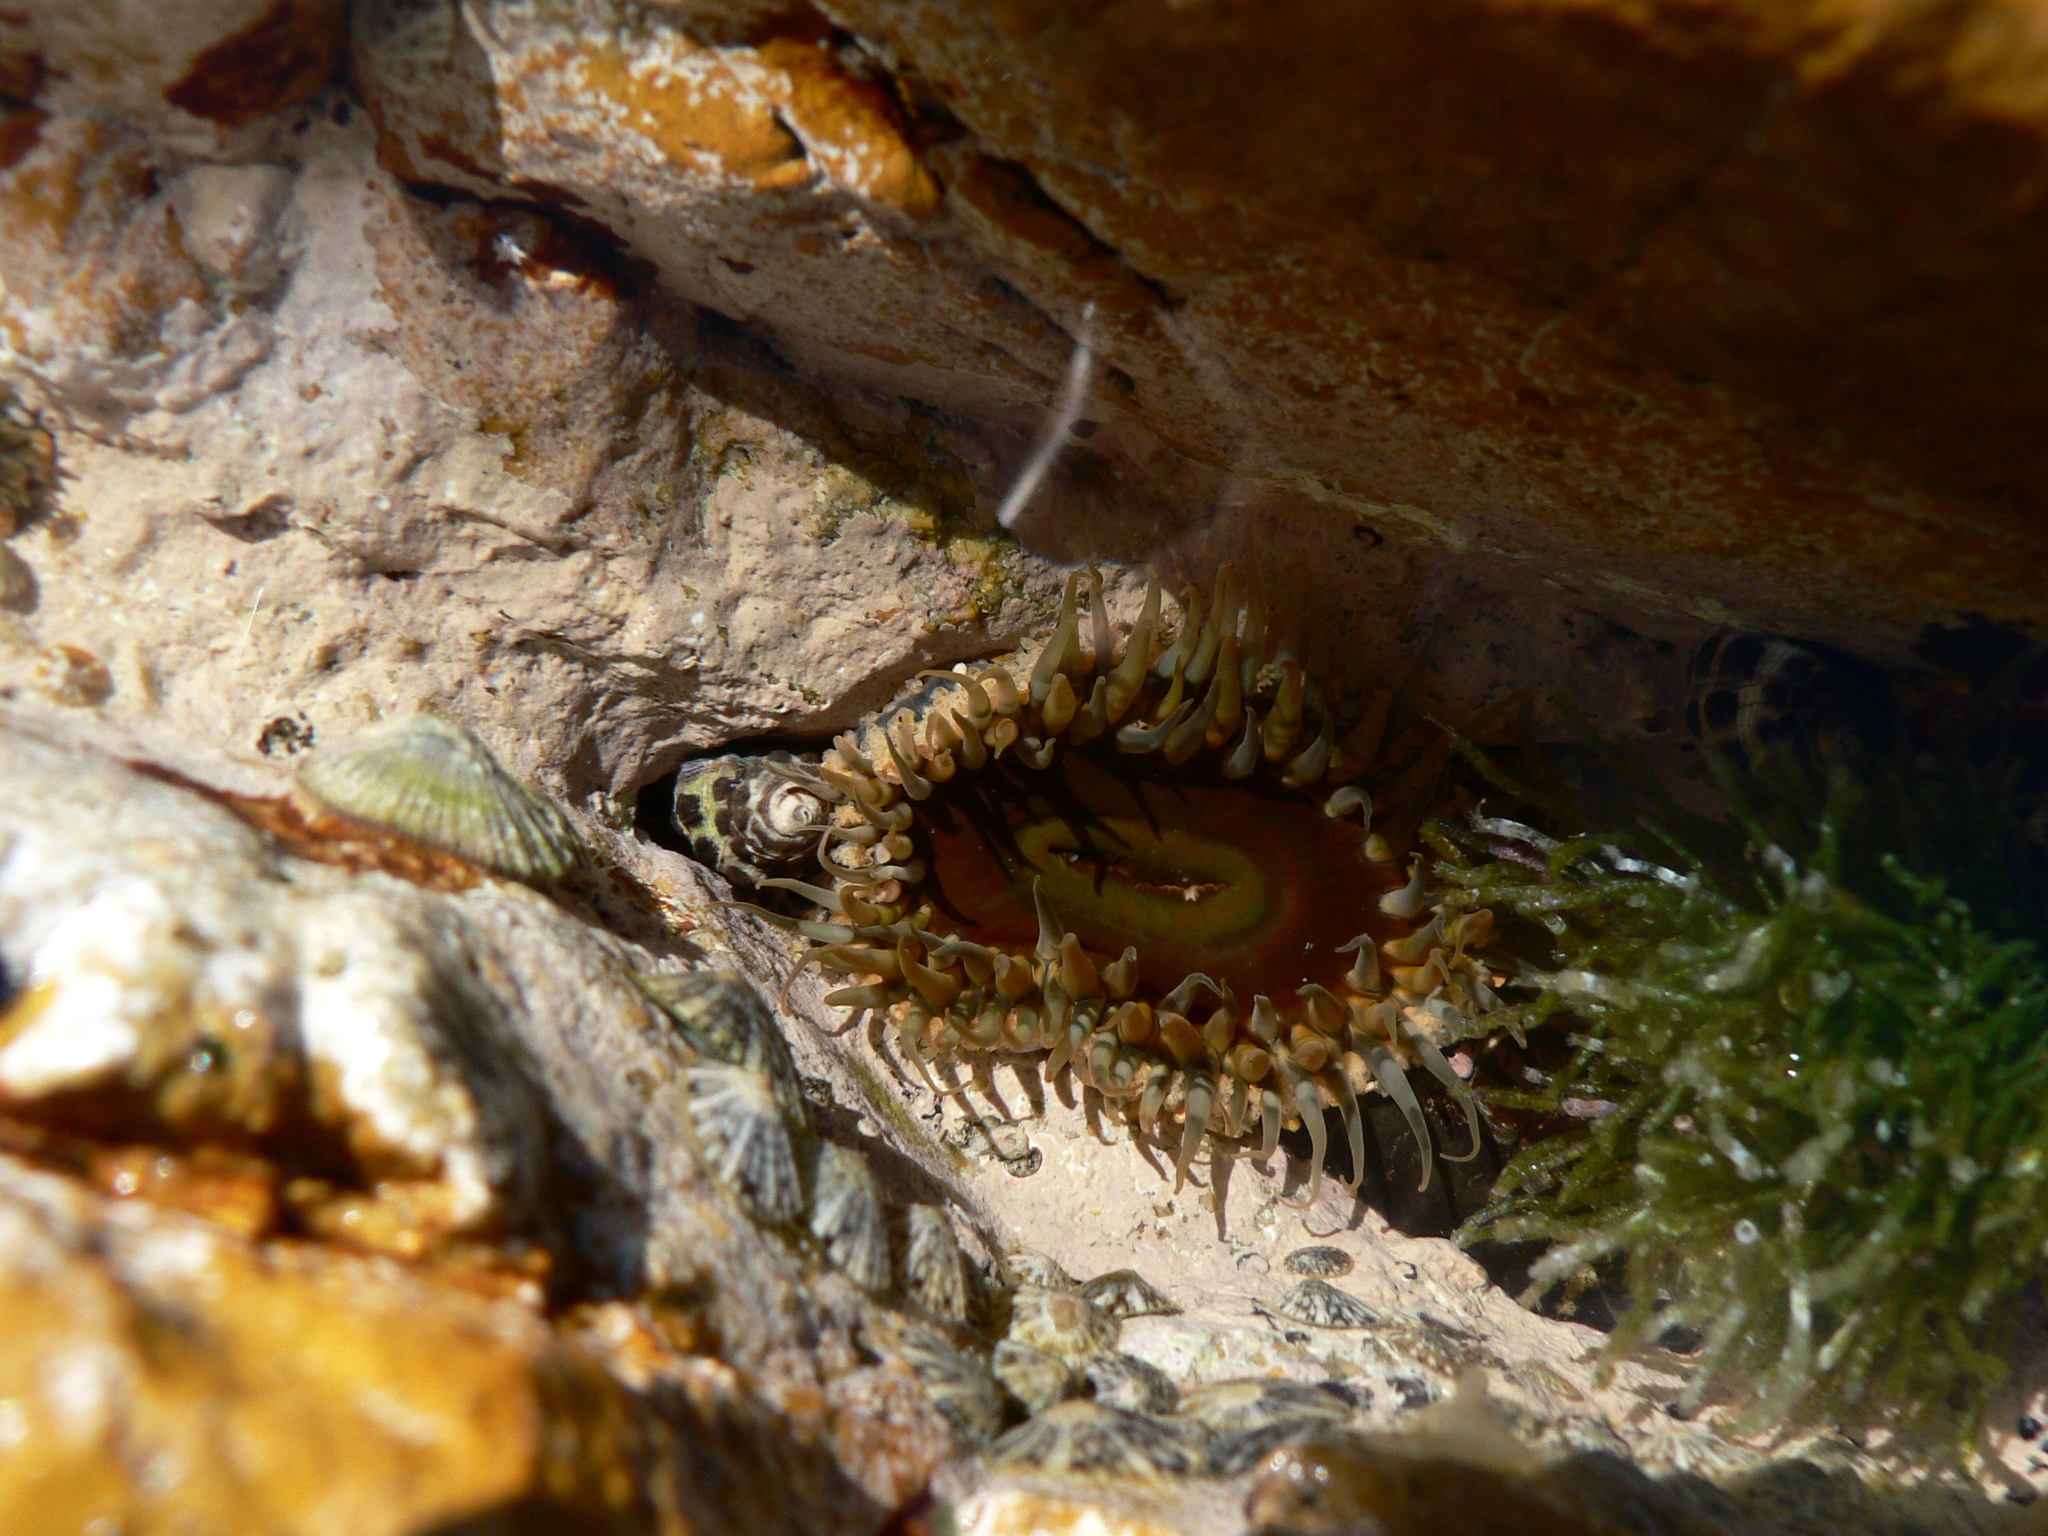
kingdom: Animalia
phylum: Cnidaria
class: Anthozoa
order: Actiniaria
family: Actiniidae
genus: Oulactis
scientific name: Oulactis muscosa
